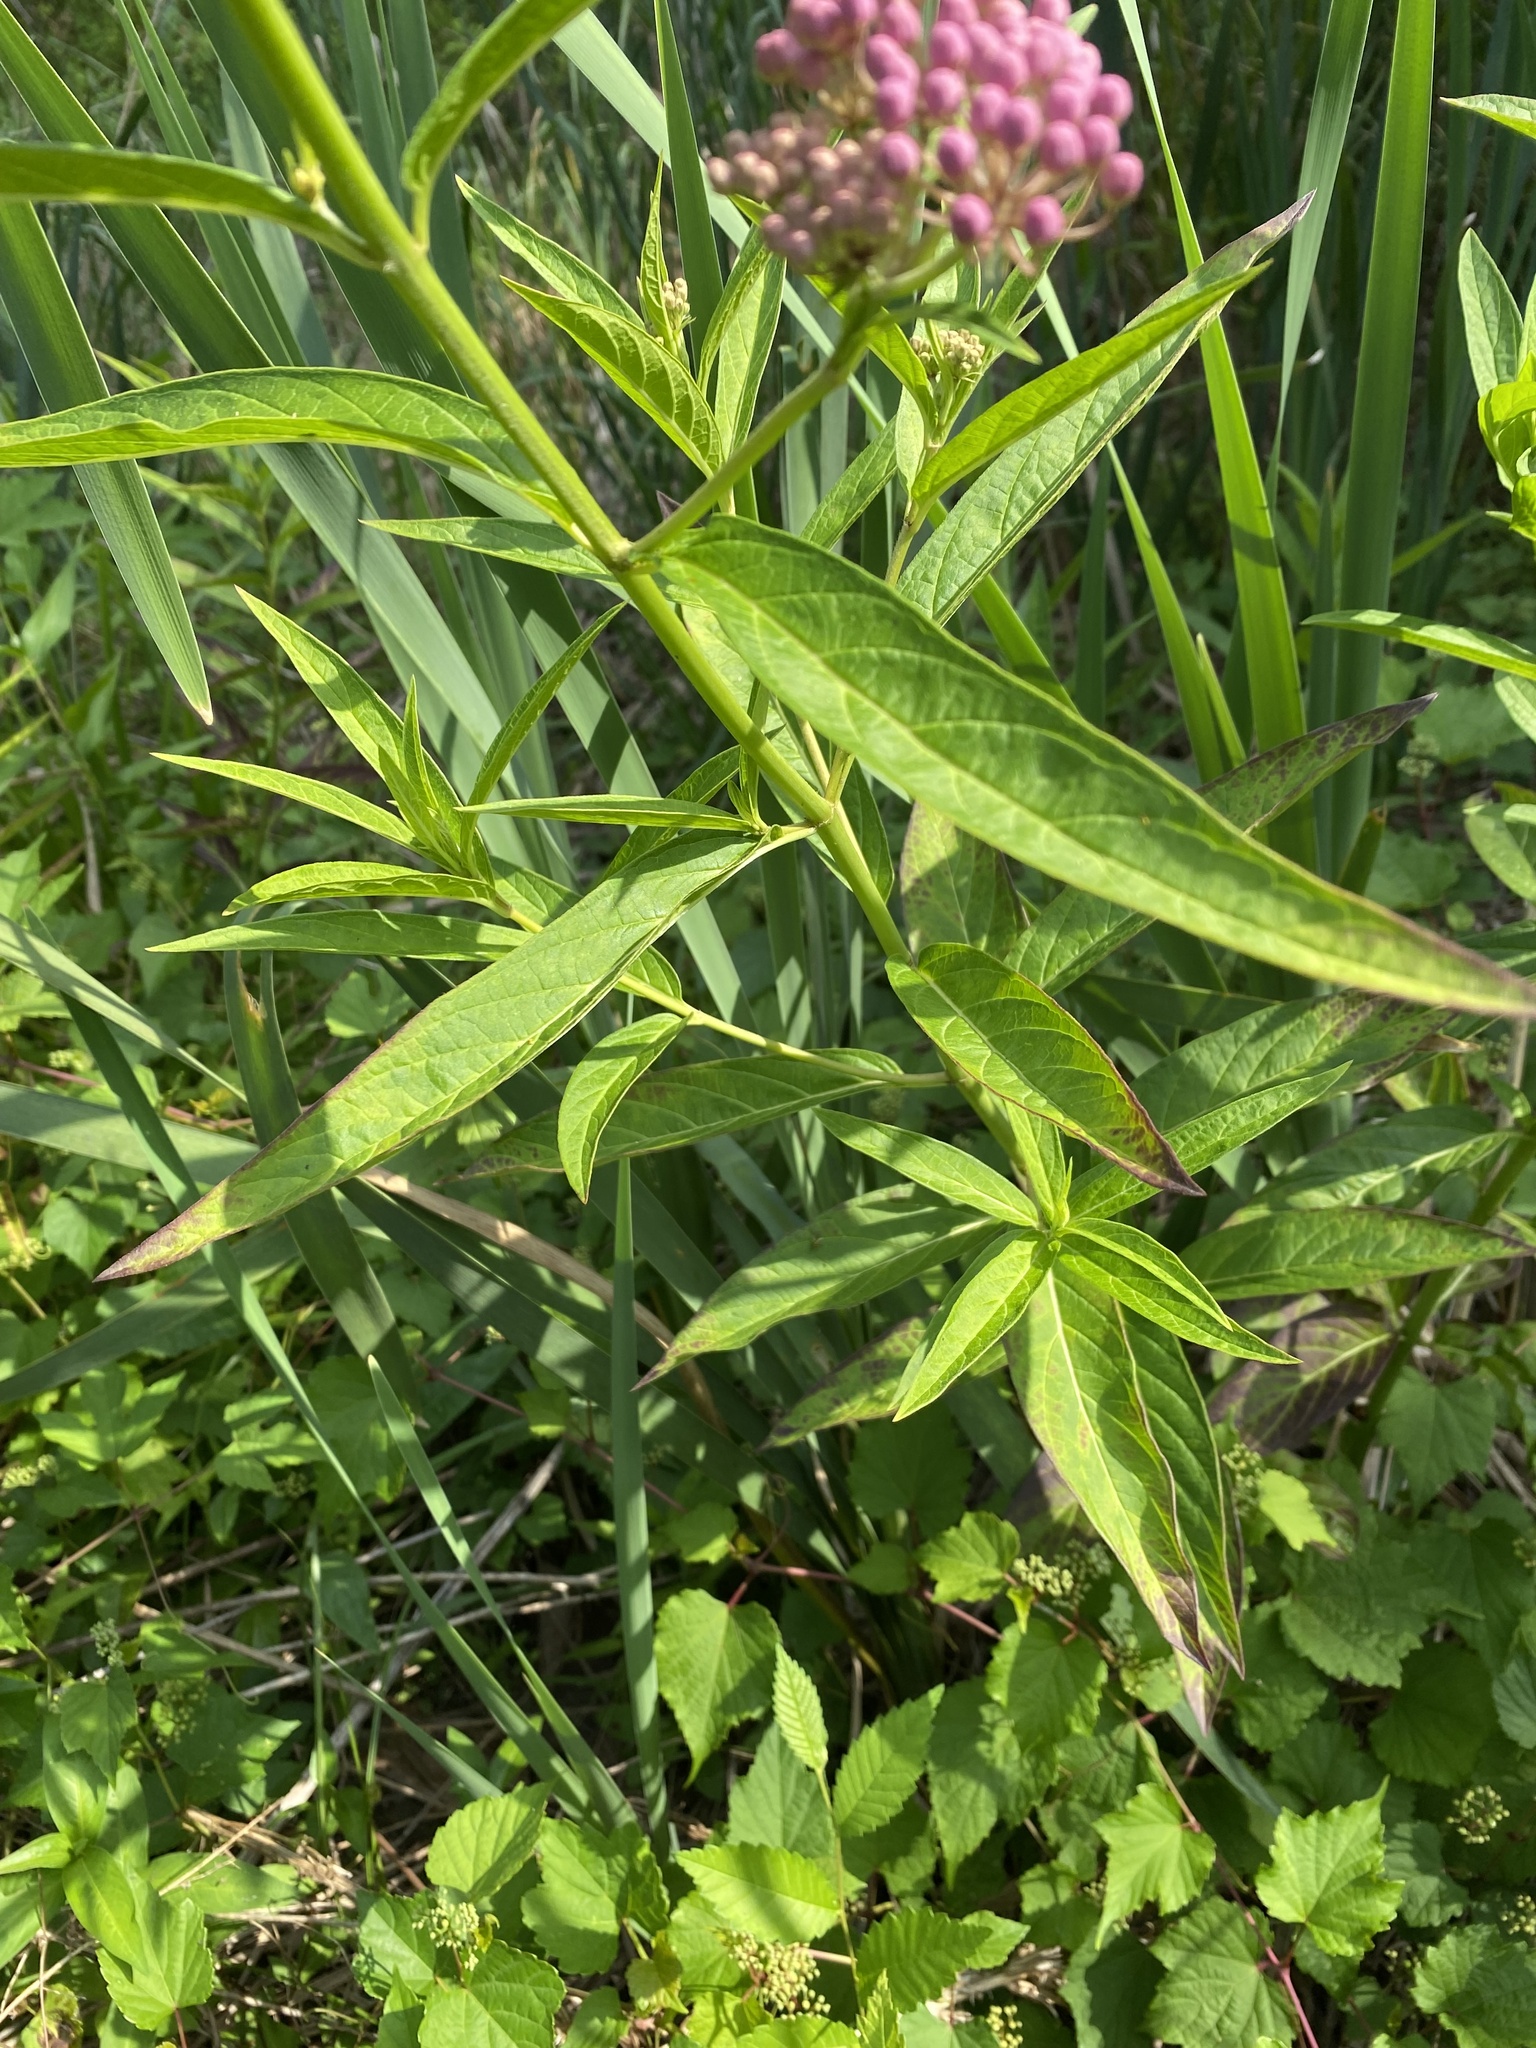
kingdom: Plantae
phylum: Tracheophyta
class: Magnoliopsida
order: Gentianales
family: Apocynaceae
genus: Asclepias
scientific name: Asclepias incarnata
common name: Swamp milkweed
